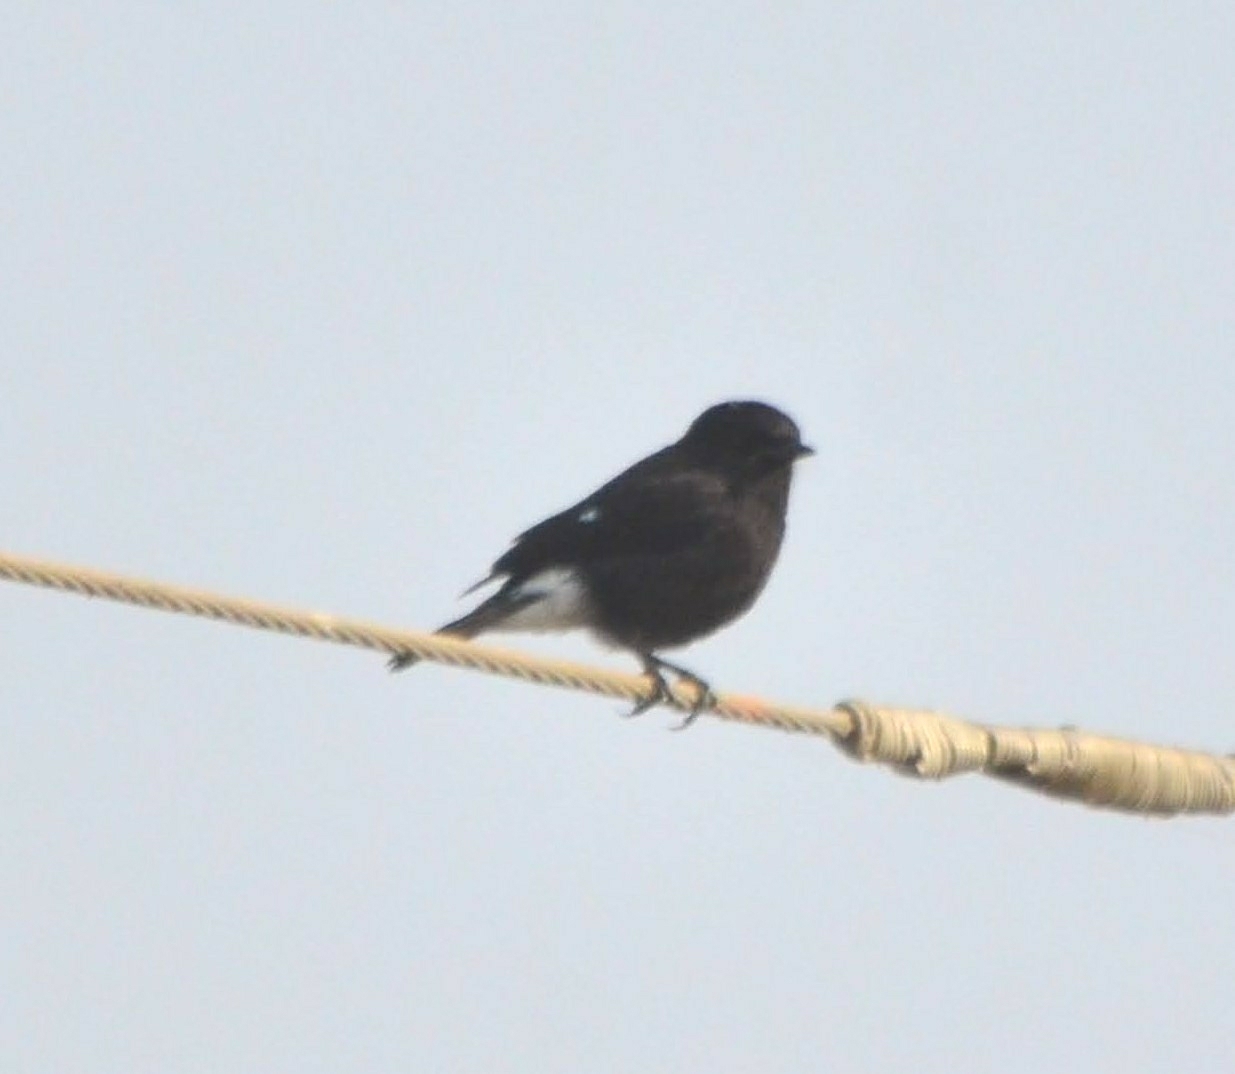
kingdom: Animalia
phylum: Chordata
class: Aves
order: Passeriformes
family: Muscicapidae
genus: Saxicola
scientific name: Saxicola caprata
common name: Pied bush chat
